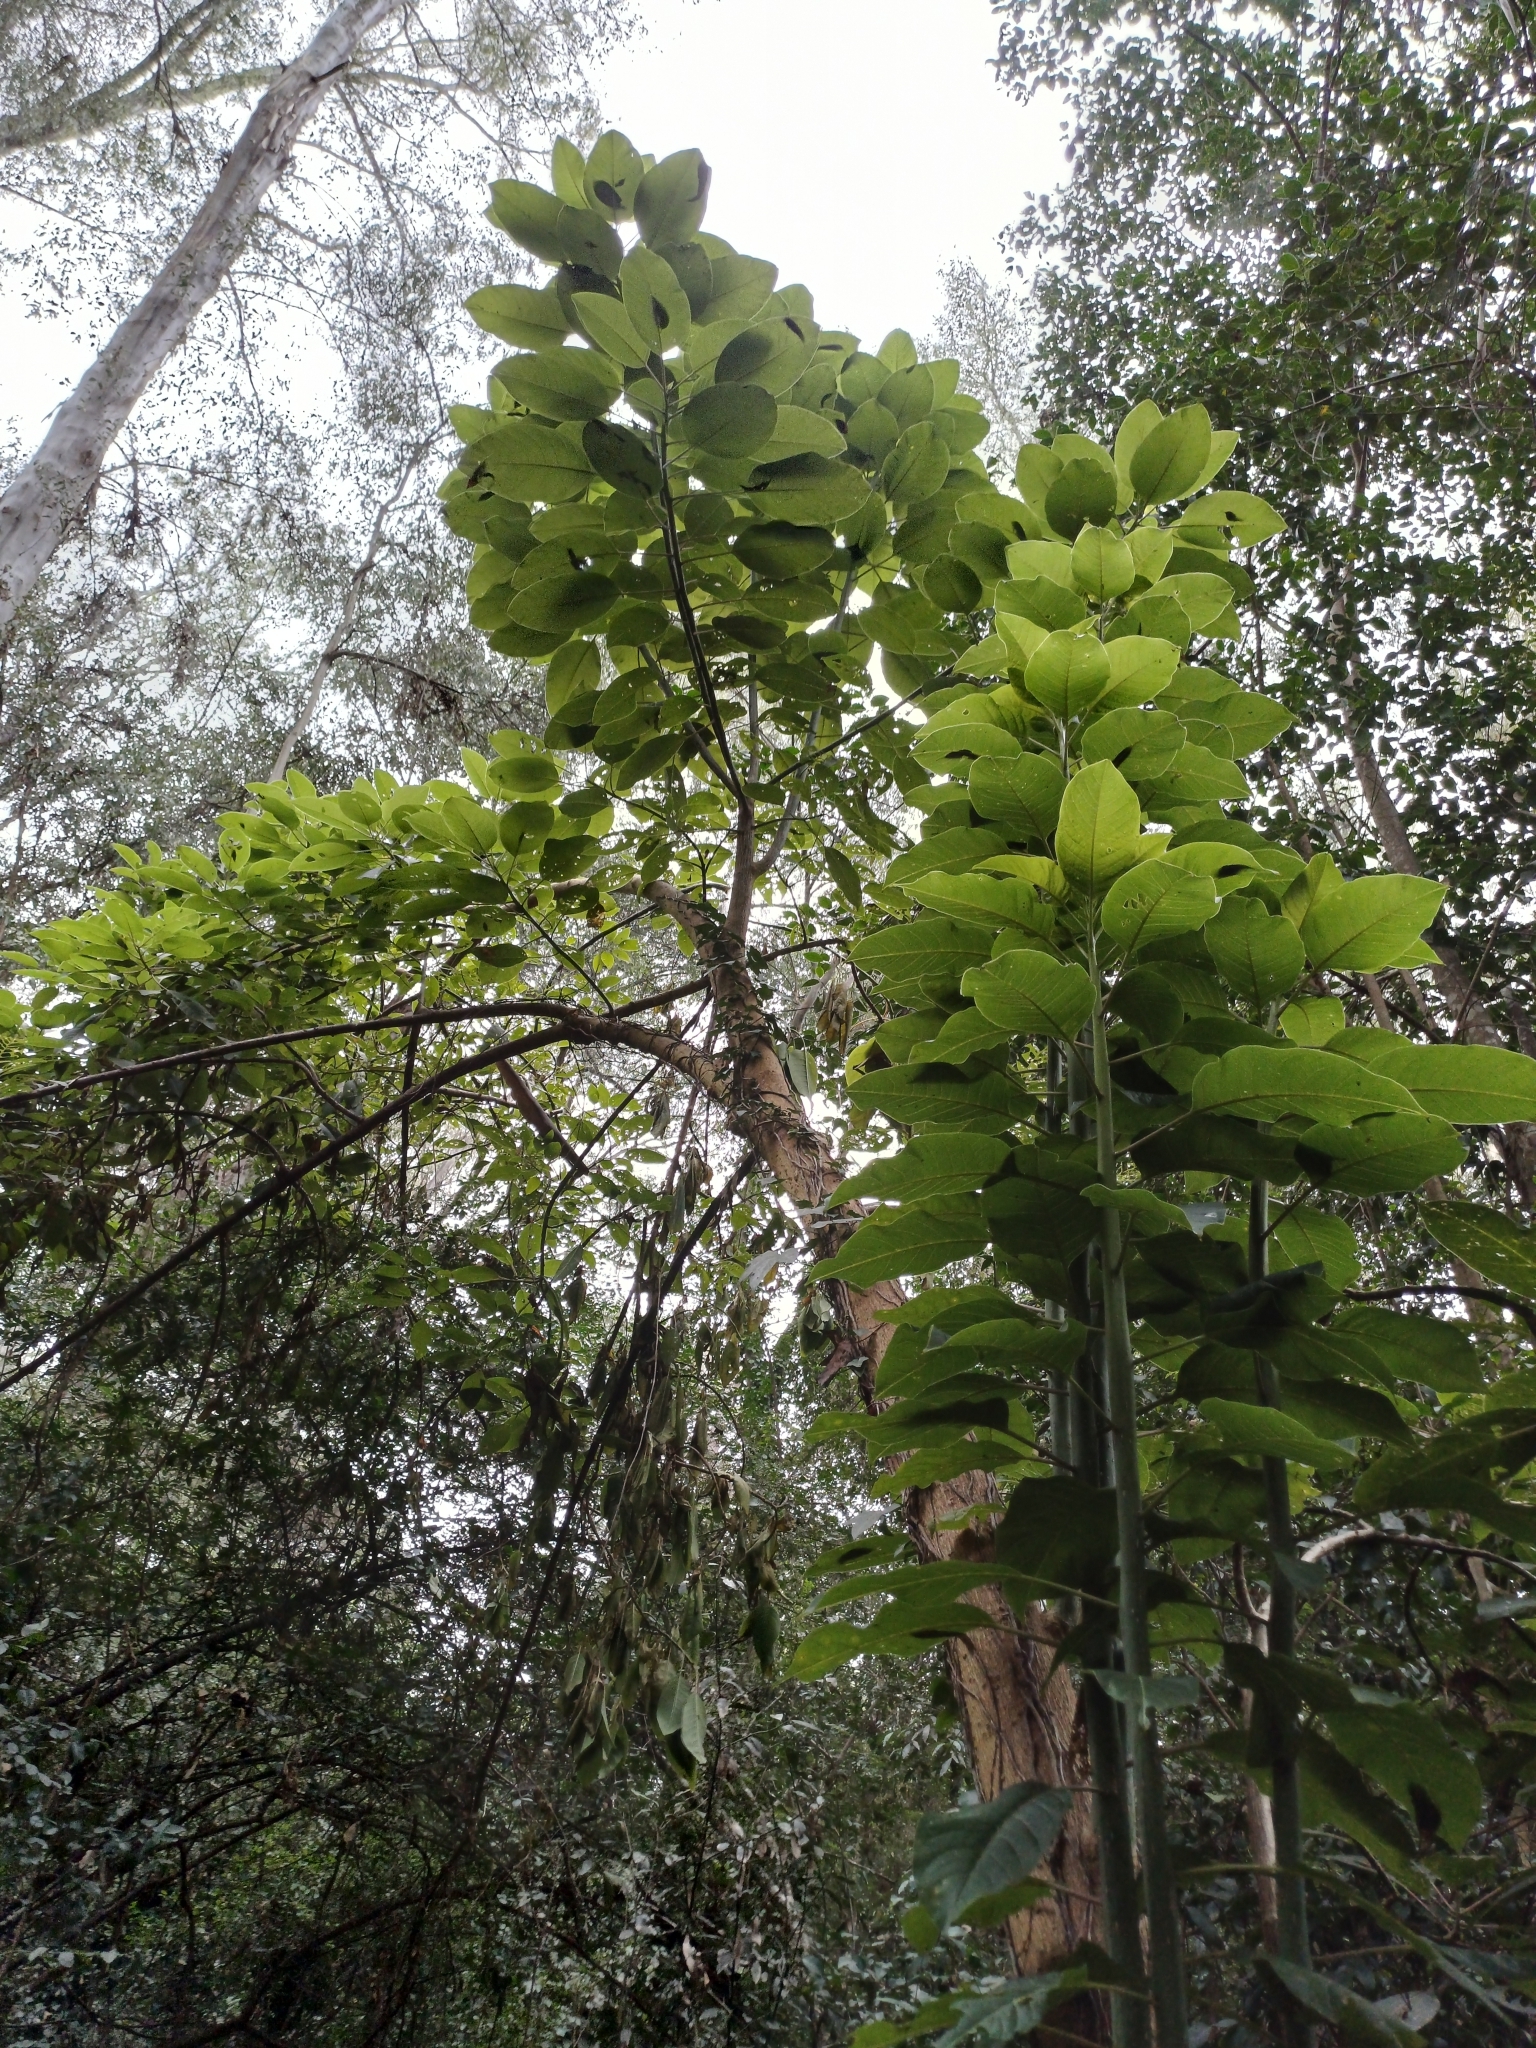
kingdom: Plantae
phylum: Tracheophyta
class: Magnoliopsida
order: Caryophyllales
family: Phytolaccaceae
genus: Phytolacca
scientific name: Phytolacca dioica
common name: Pokeweed
